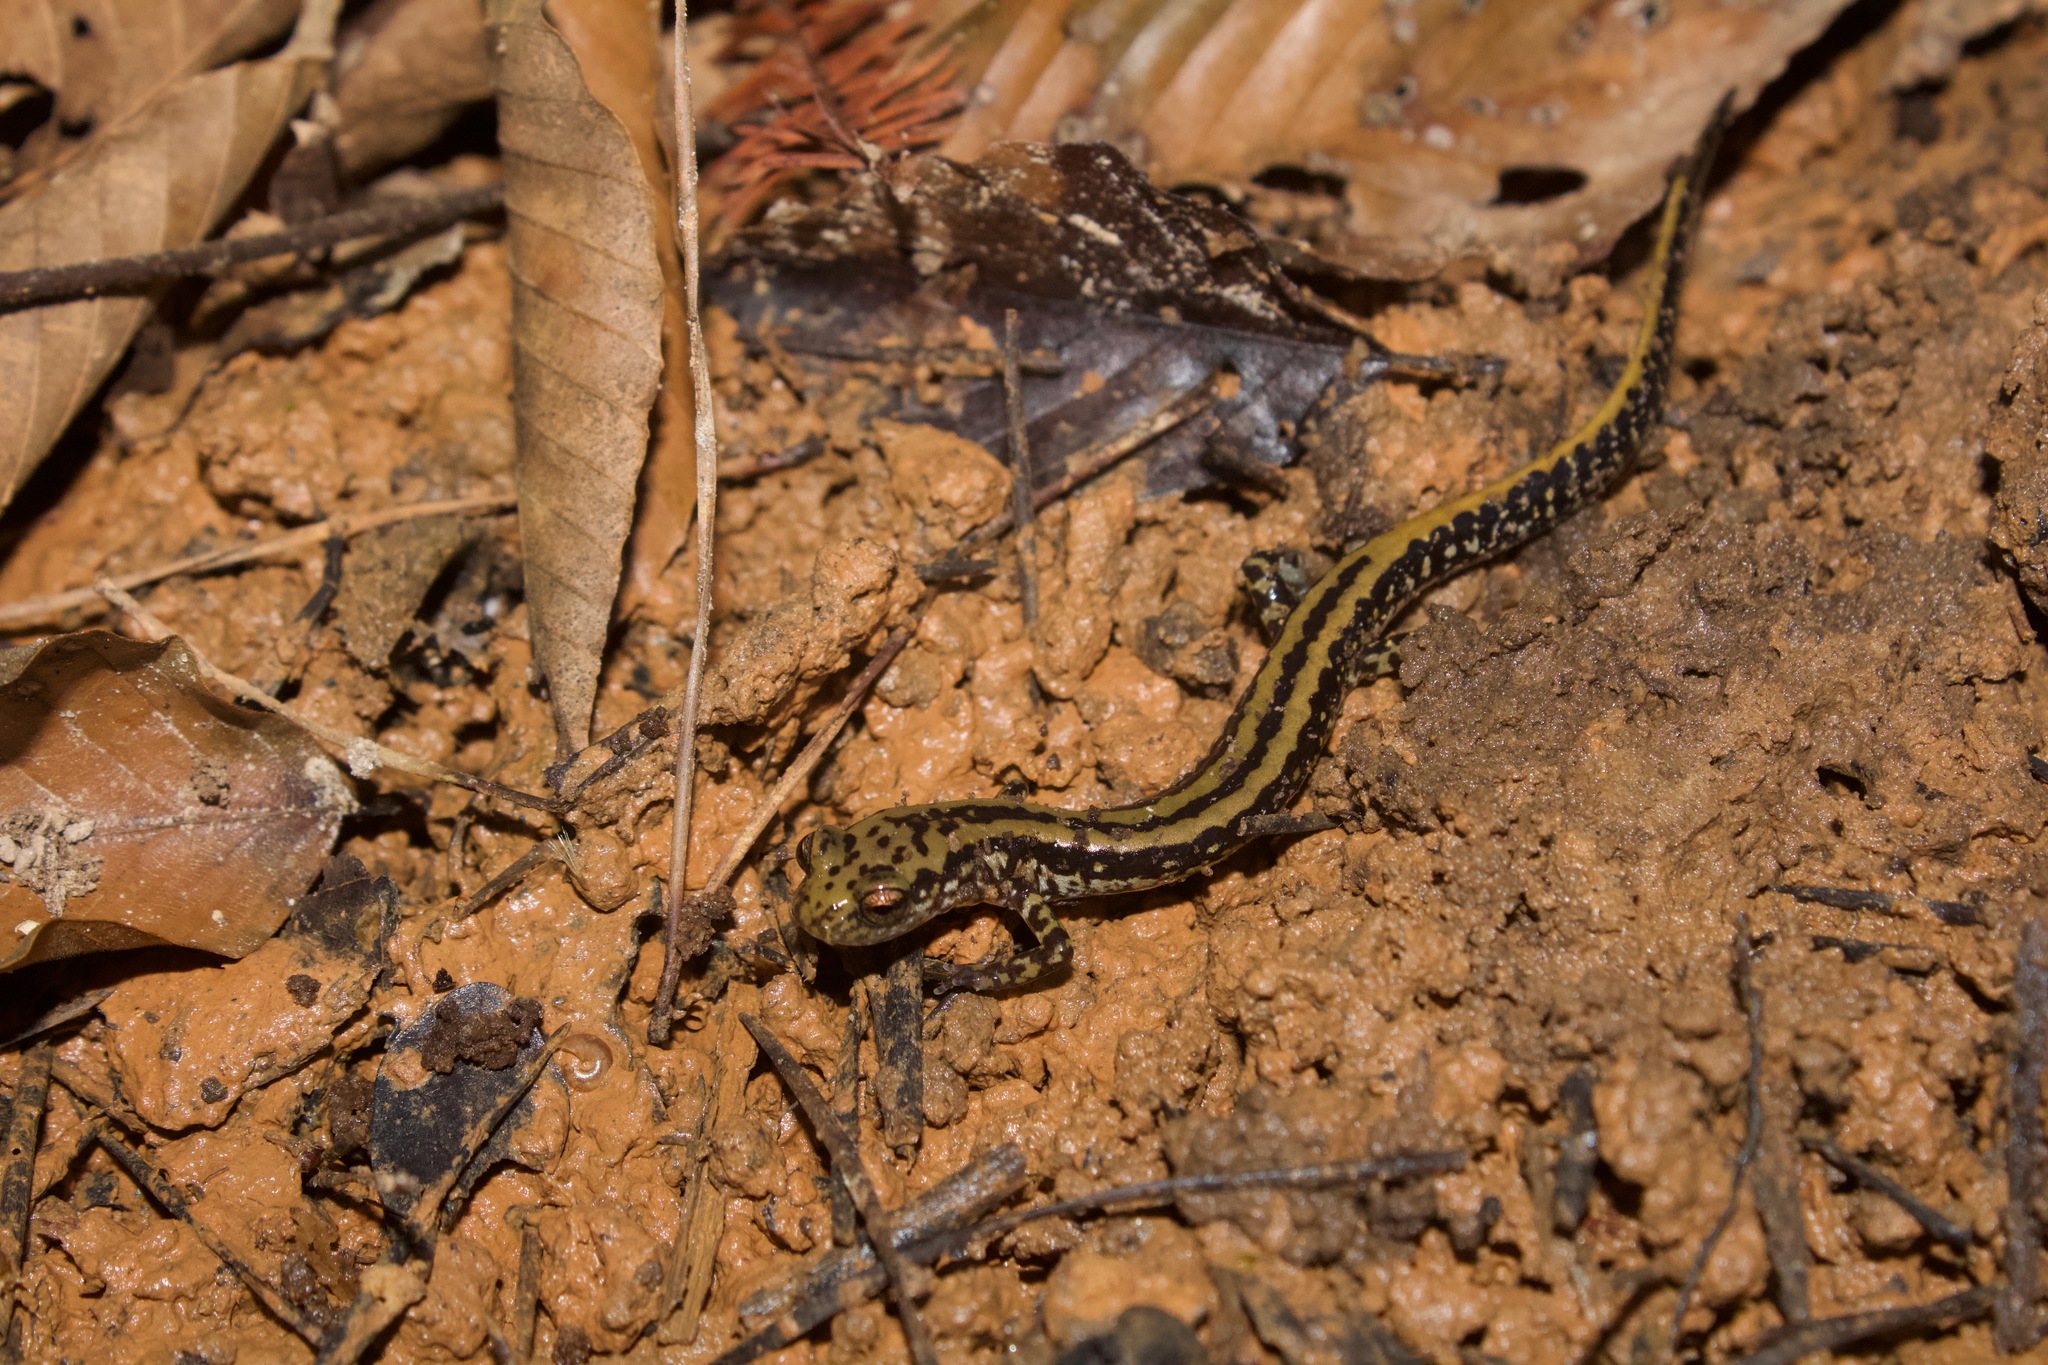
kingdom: Animalia
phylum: Chordata
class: Amphibia
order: Caudata
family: Plethodontidae
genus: Eurycea
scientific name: Eurycea guttolineata
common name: Three-lined salamander
